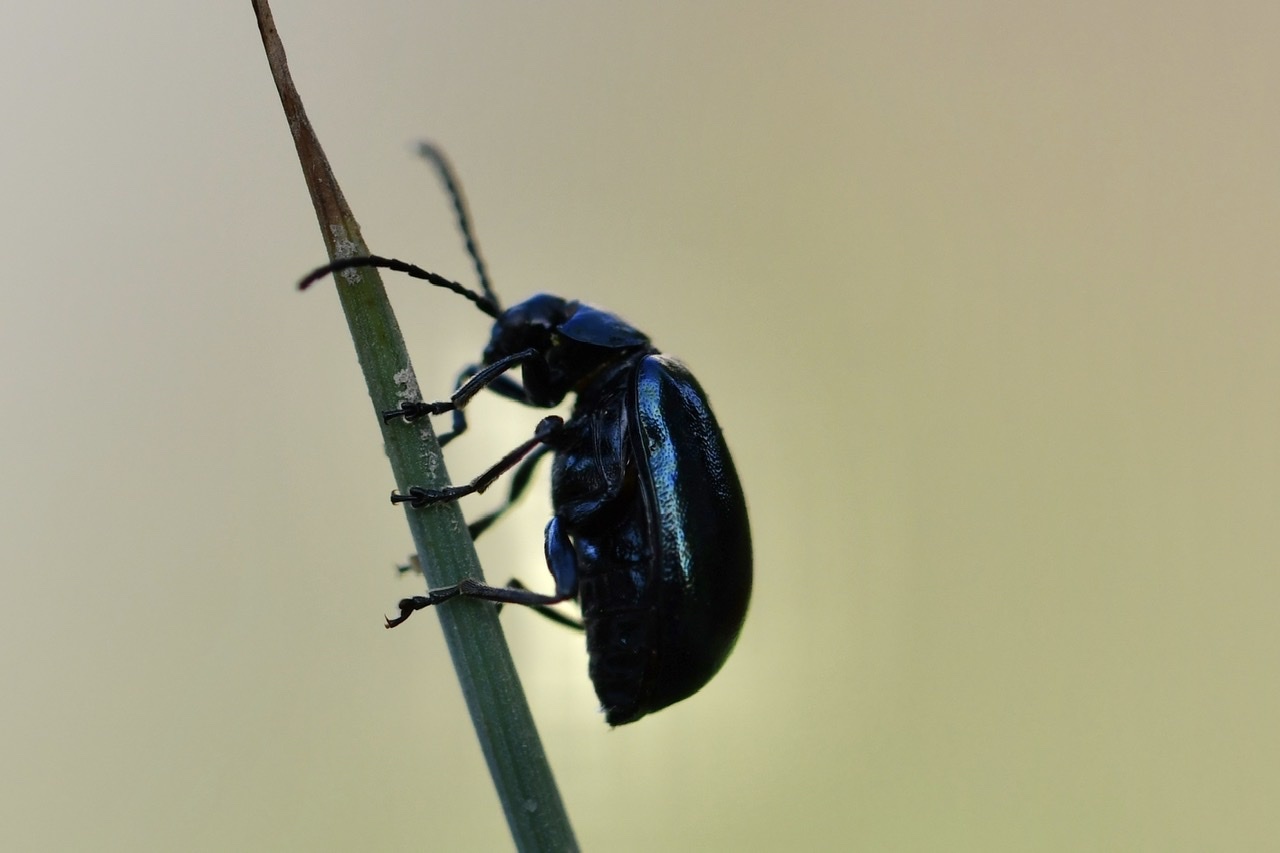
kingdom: Animalia
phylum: Arthropoda
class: Insecta
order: Coleoptera
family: Chrysomelidae
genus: Agelastica
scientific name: Agelastica alni
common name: Alder leaf beetle
